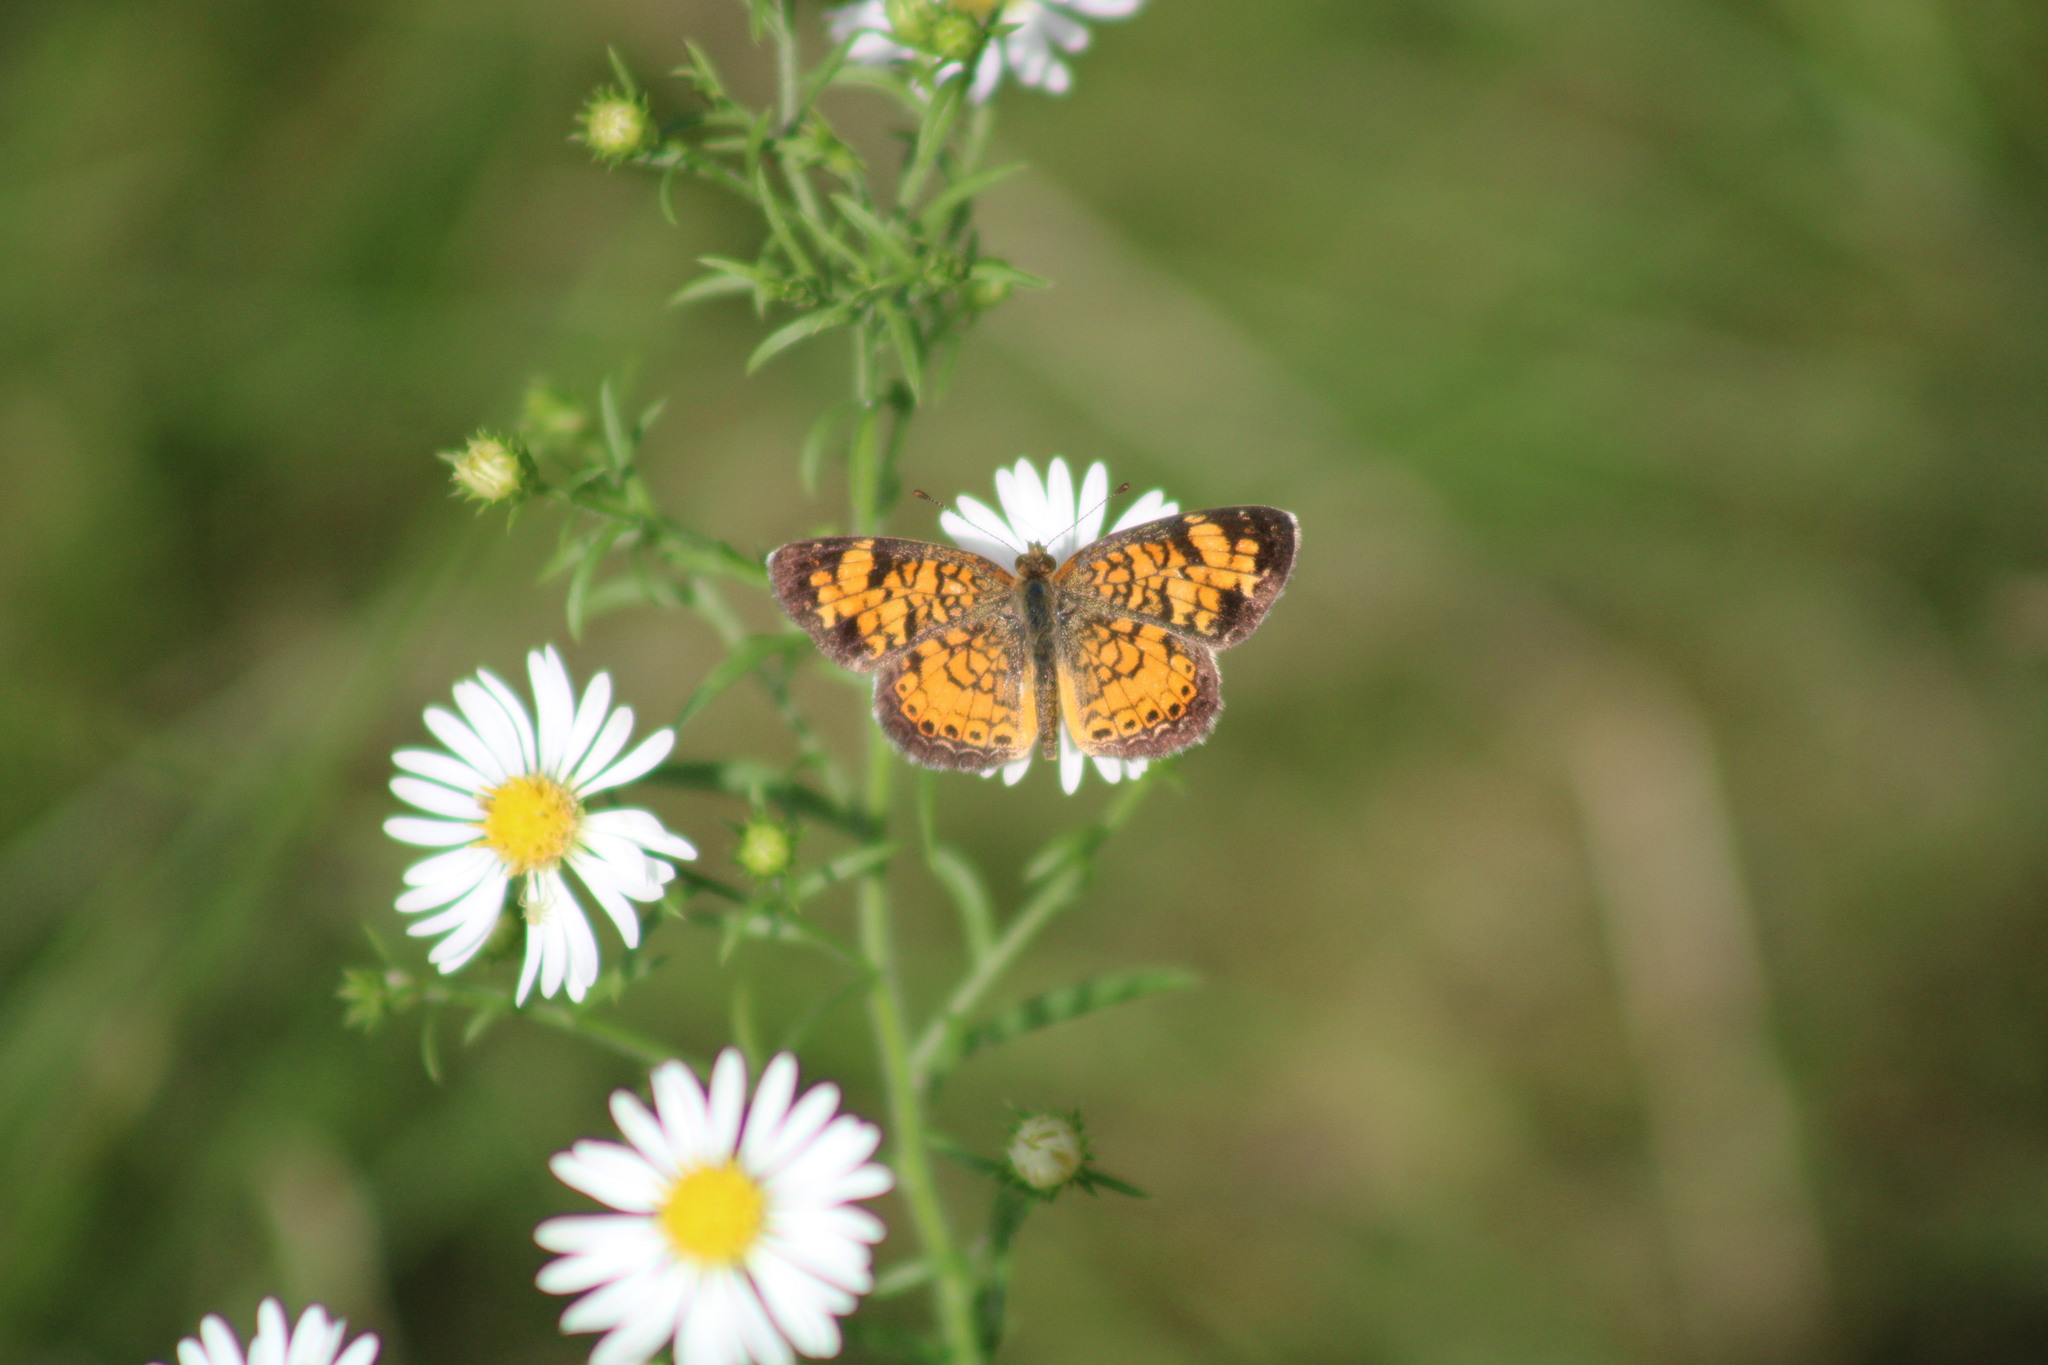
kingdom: Animalia
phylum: Arthropoda
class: Insecta
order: Lepidoptera
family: Nymphalidae
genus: Phyciodes
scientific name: Phyciodes tharos
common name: Pearl crescent
